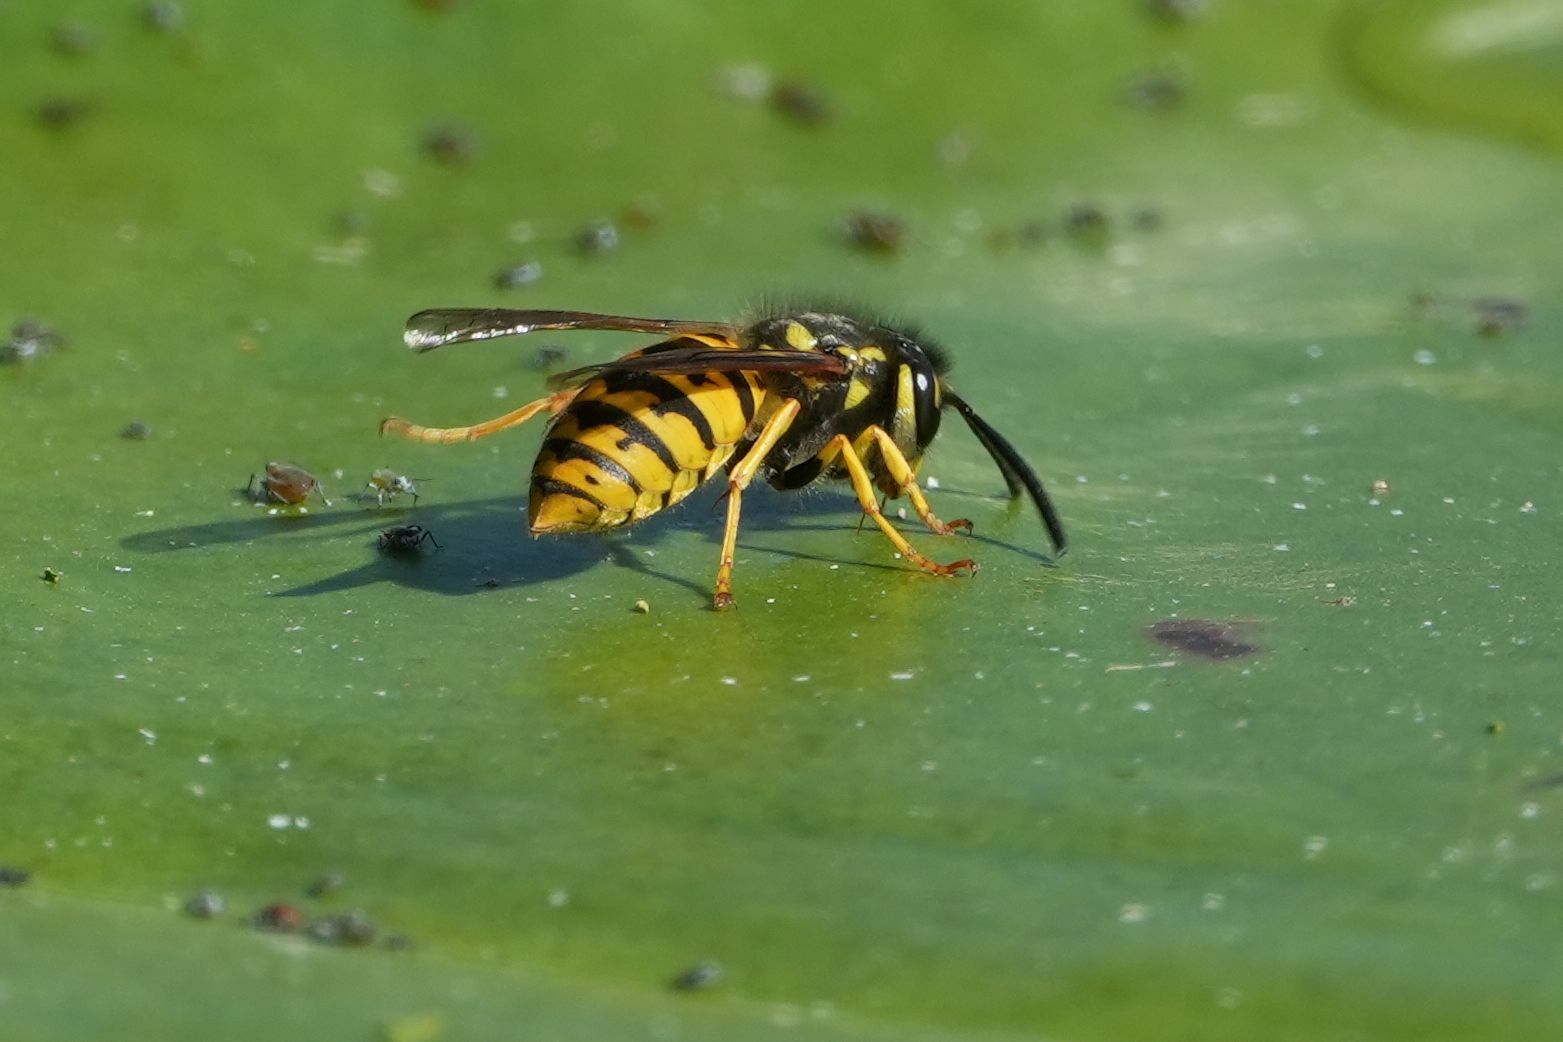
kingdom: Animalia
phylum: Arthropoda
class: Insecta
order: Hymenoptera
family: Vespidae
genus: Vespula
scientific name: Vespula germanica
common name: German wasp
